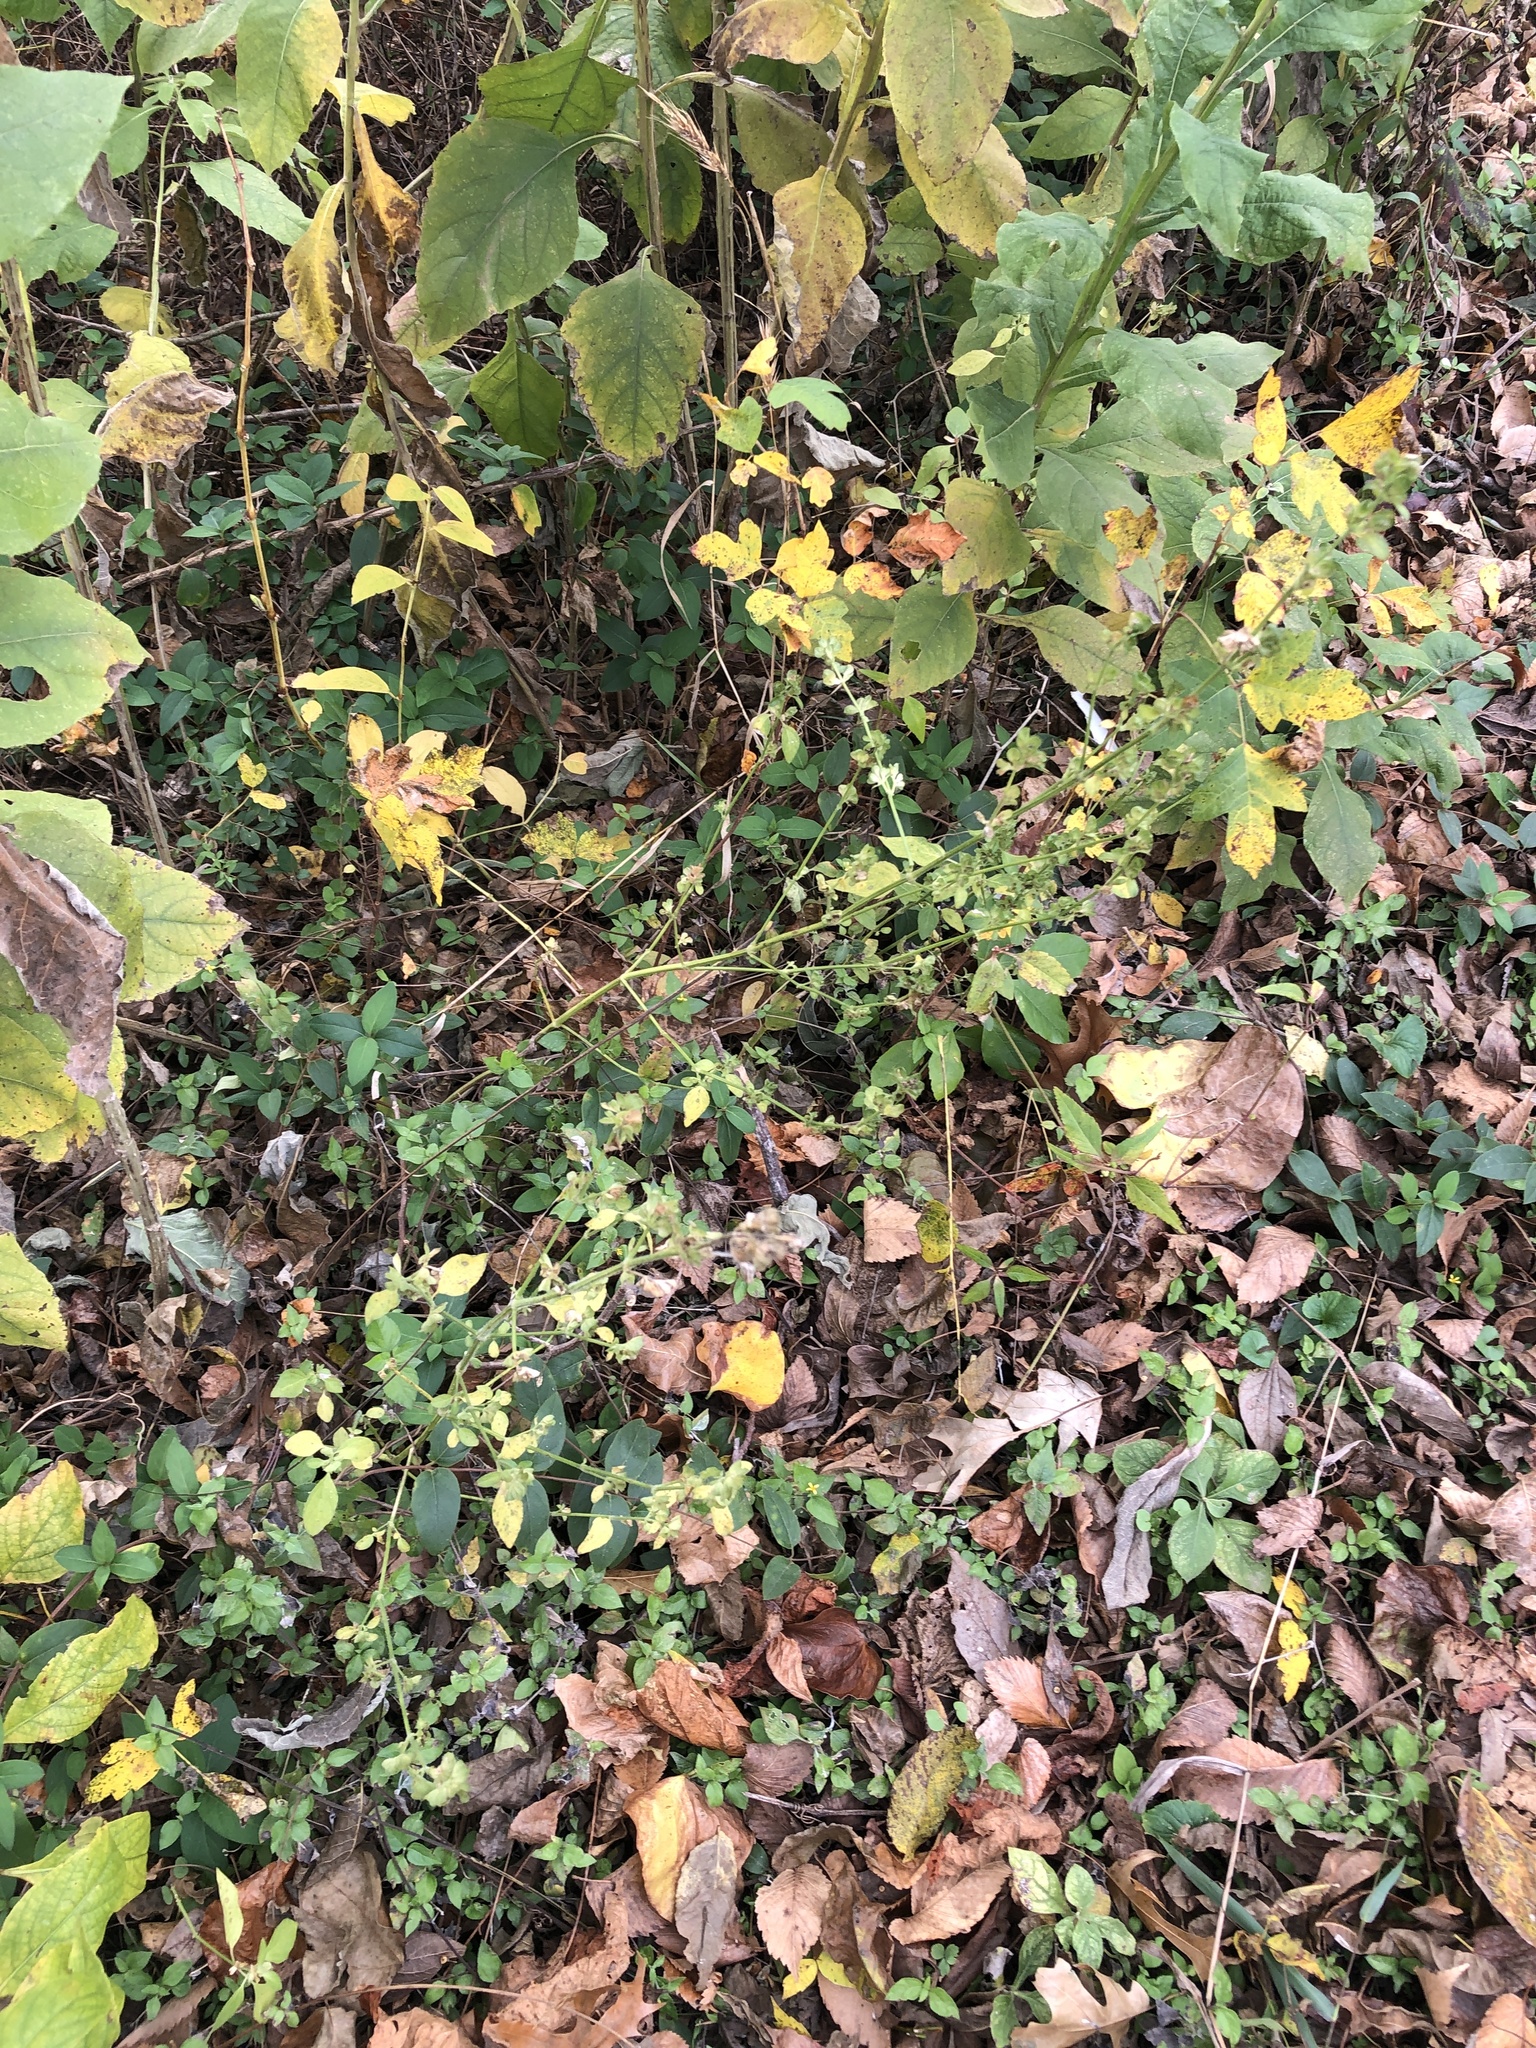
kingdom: Plantae
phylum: Tracheophyta
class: Magnoliopsida
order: Lamiales
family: Acanthaceae
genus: Dicliptera
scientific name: Dicliptera brachiata
